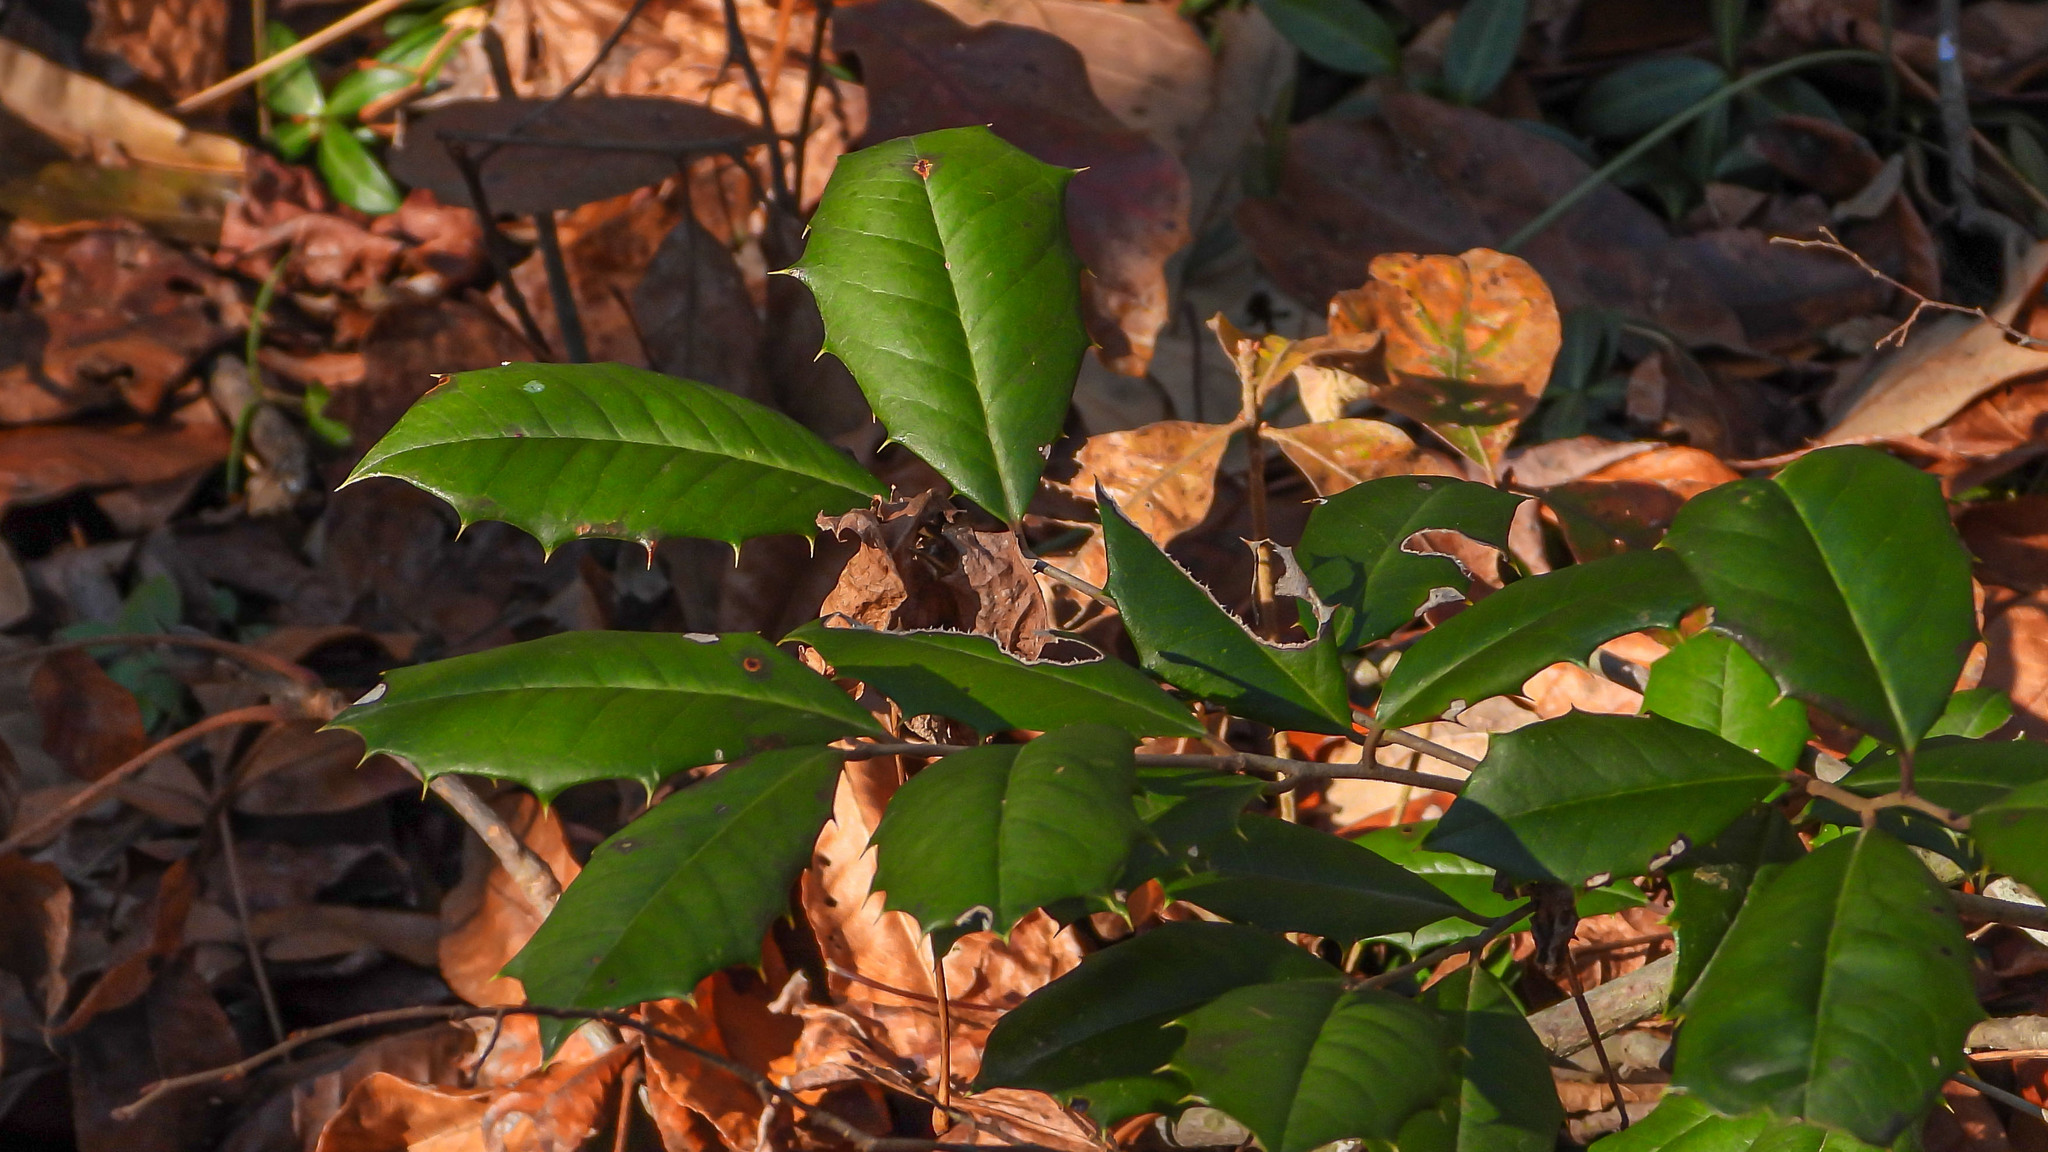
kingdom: Plantae
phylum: Tracheophyta
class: Magnoliopsida
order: Aquifoliales
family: Aquifoliaceae
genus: Ilex
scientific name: Ilex opaca
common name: American holly
